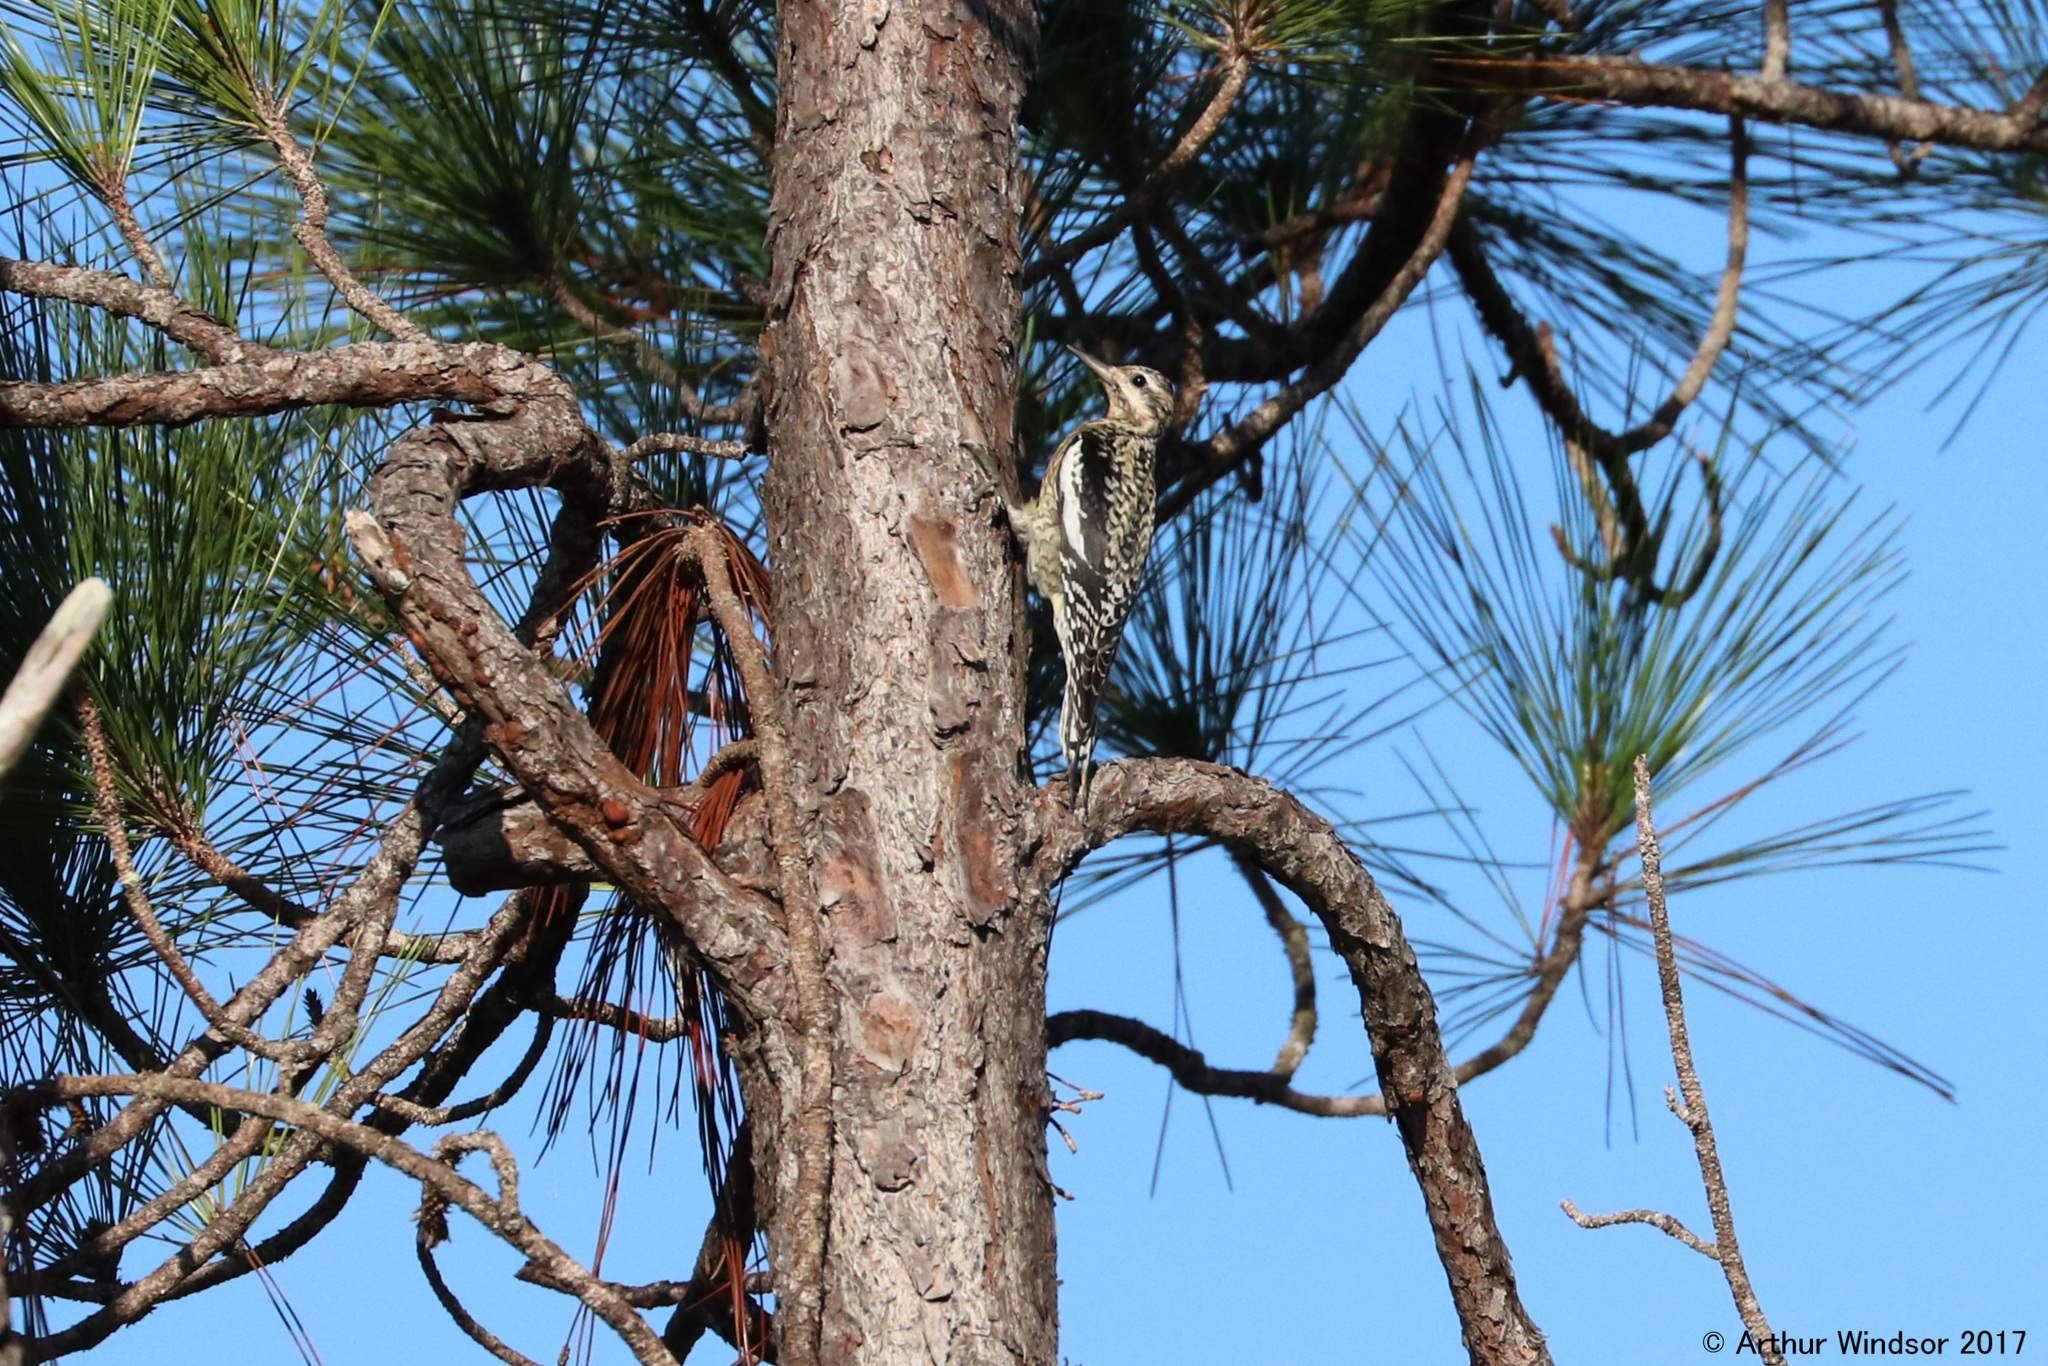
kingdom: Animalia
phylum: Chordata
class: Aves
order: Piciformes
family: Picidae
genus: Sphyrapicus
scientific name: Sphyrapicus varius
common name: Yellow-bellied sapsucker
